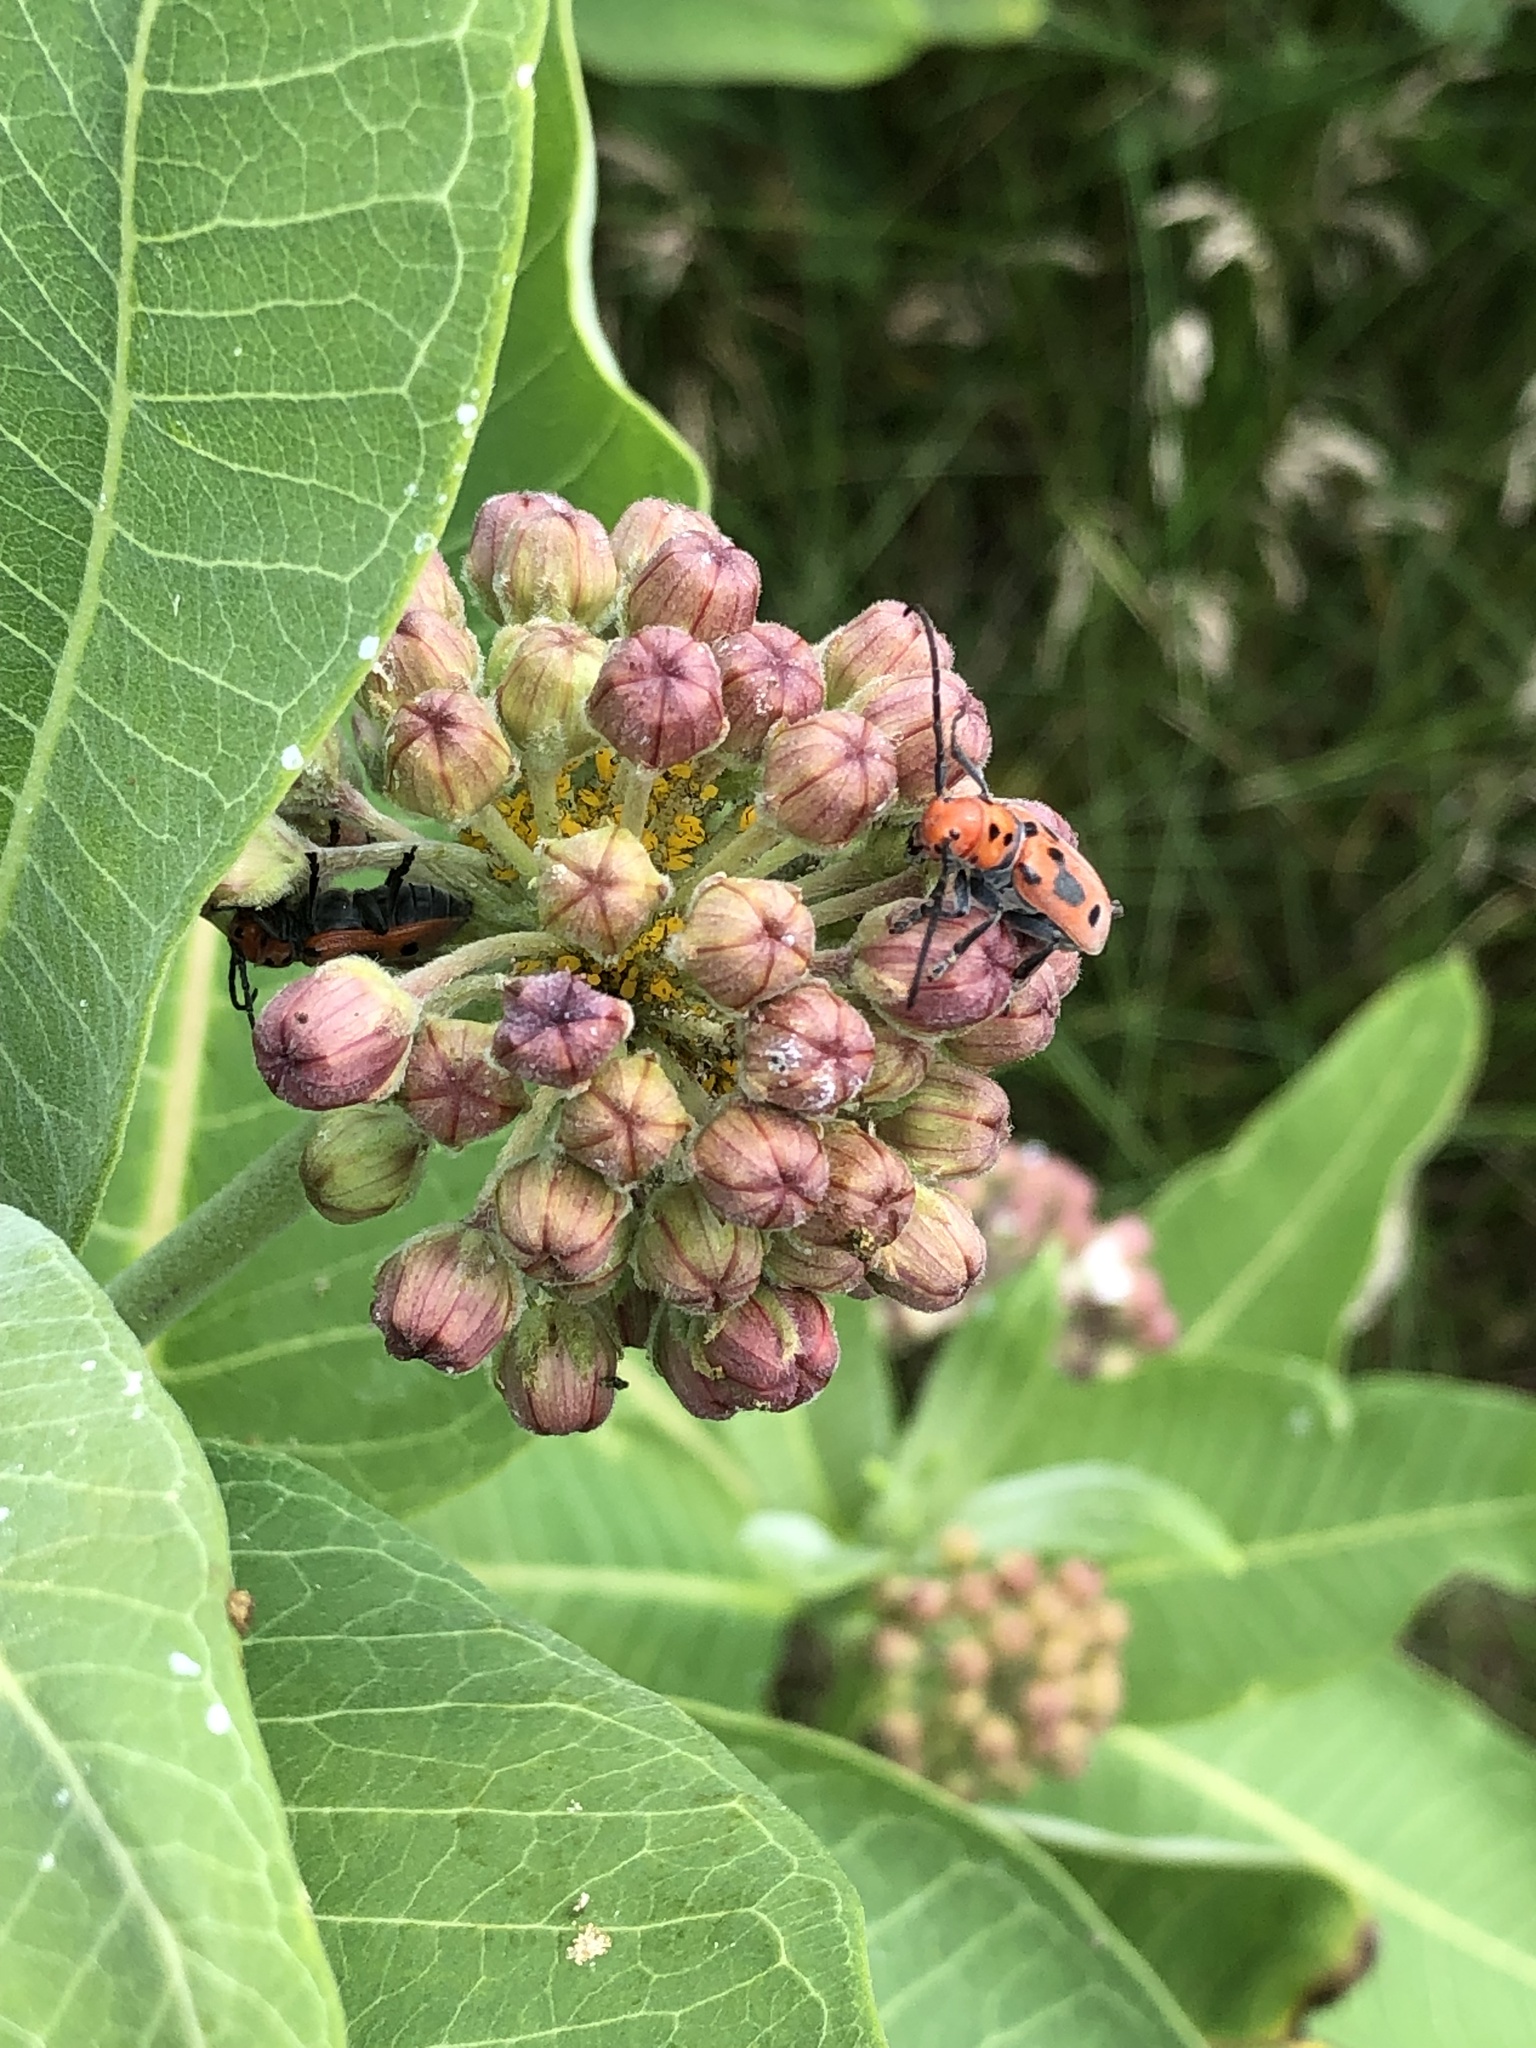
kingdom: Animalia
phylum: Arthropoda
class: Insecta
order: Coleoptera
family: Cerambycidae
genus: Tetraopes
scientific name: Tetraopes tetrophthalmus
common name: Red milkweed beetle
